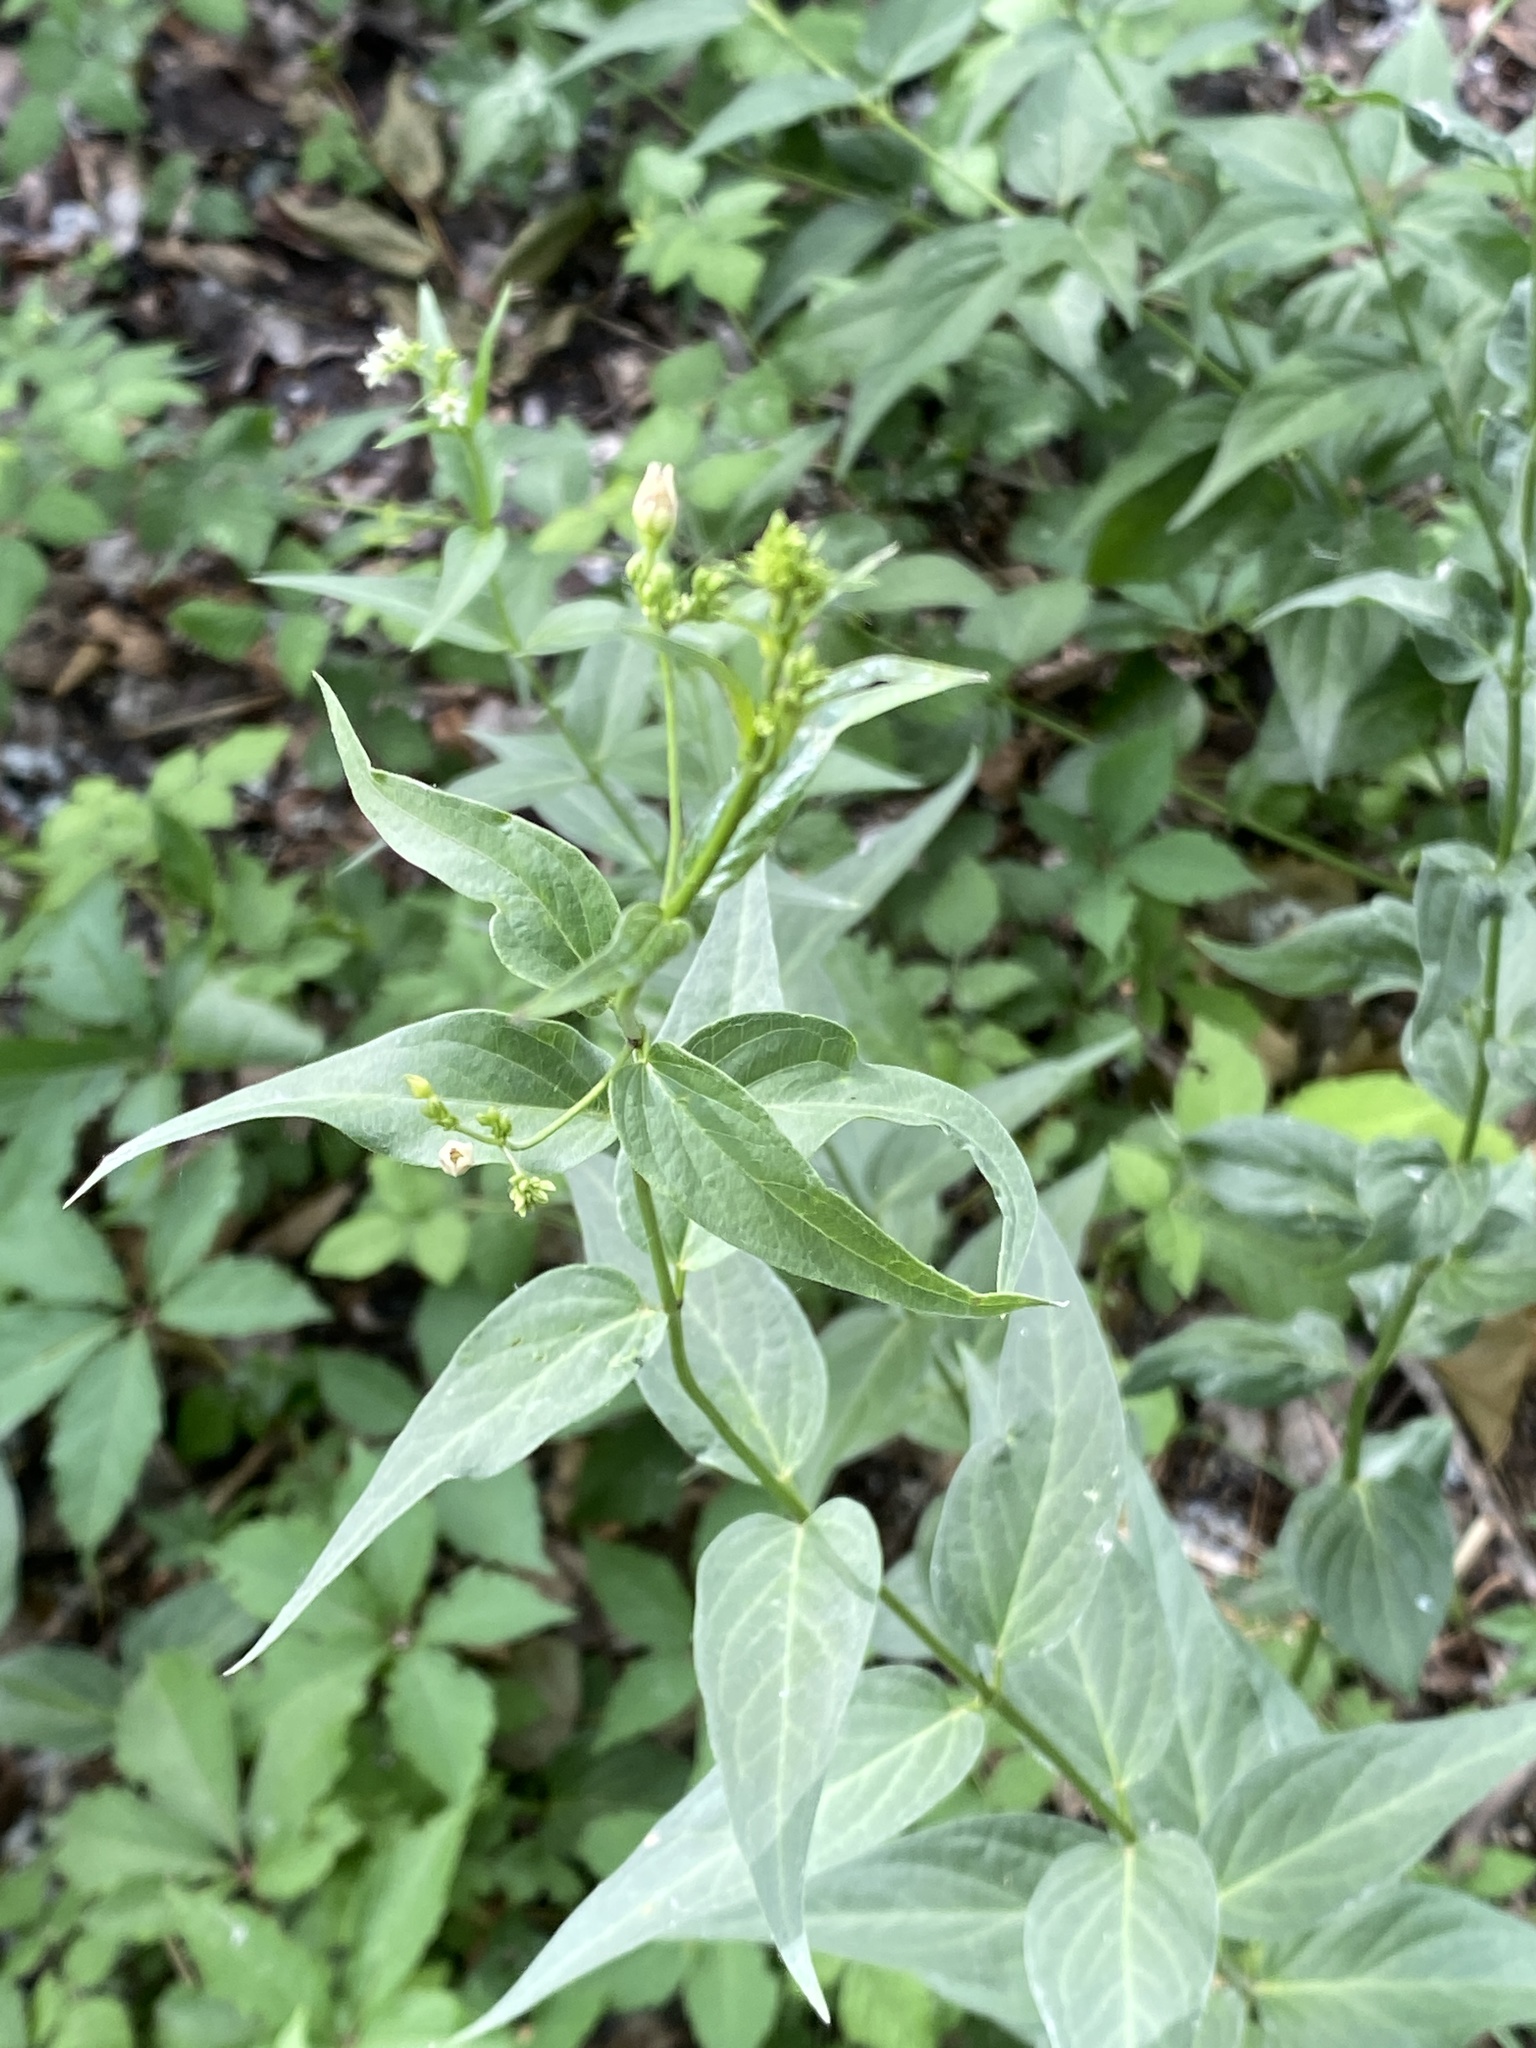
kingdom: Plantae
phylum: Tracheophyta
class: Magnoliopsida
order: Gentianales
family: Apocynaceae
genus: Vincetoxicum
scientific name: Vincetoxicum hirundinaria
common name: White swallowwort
